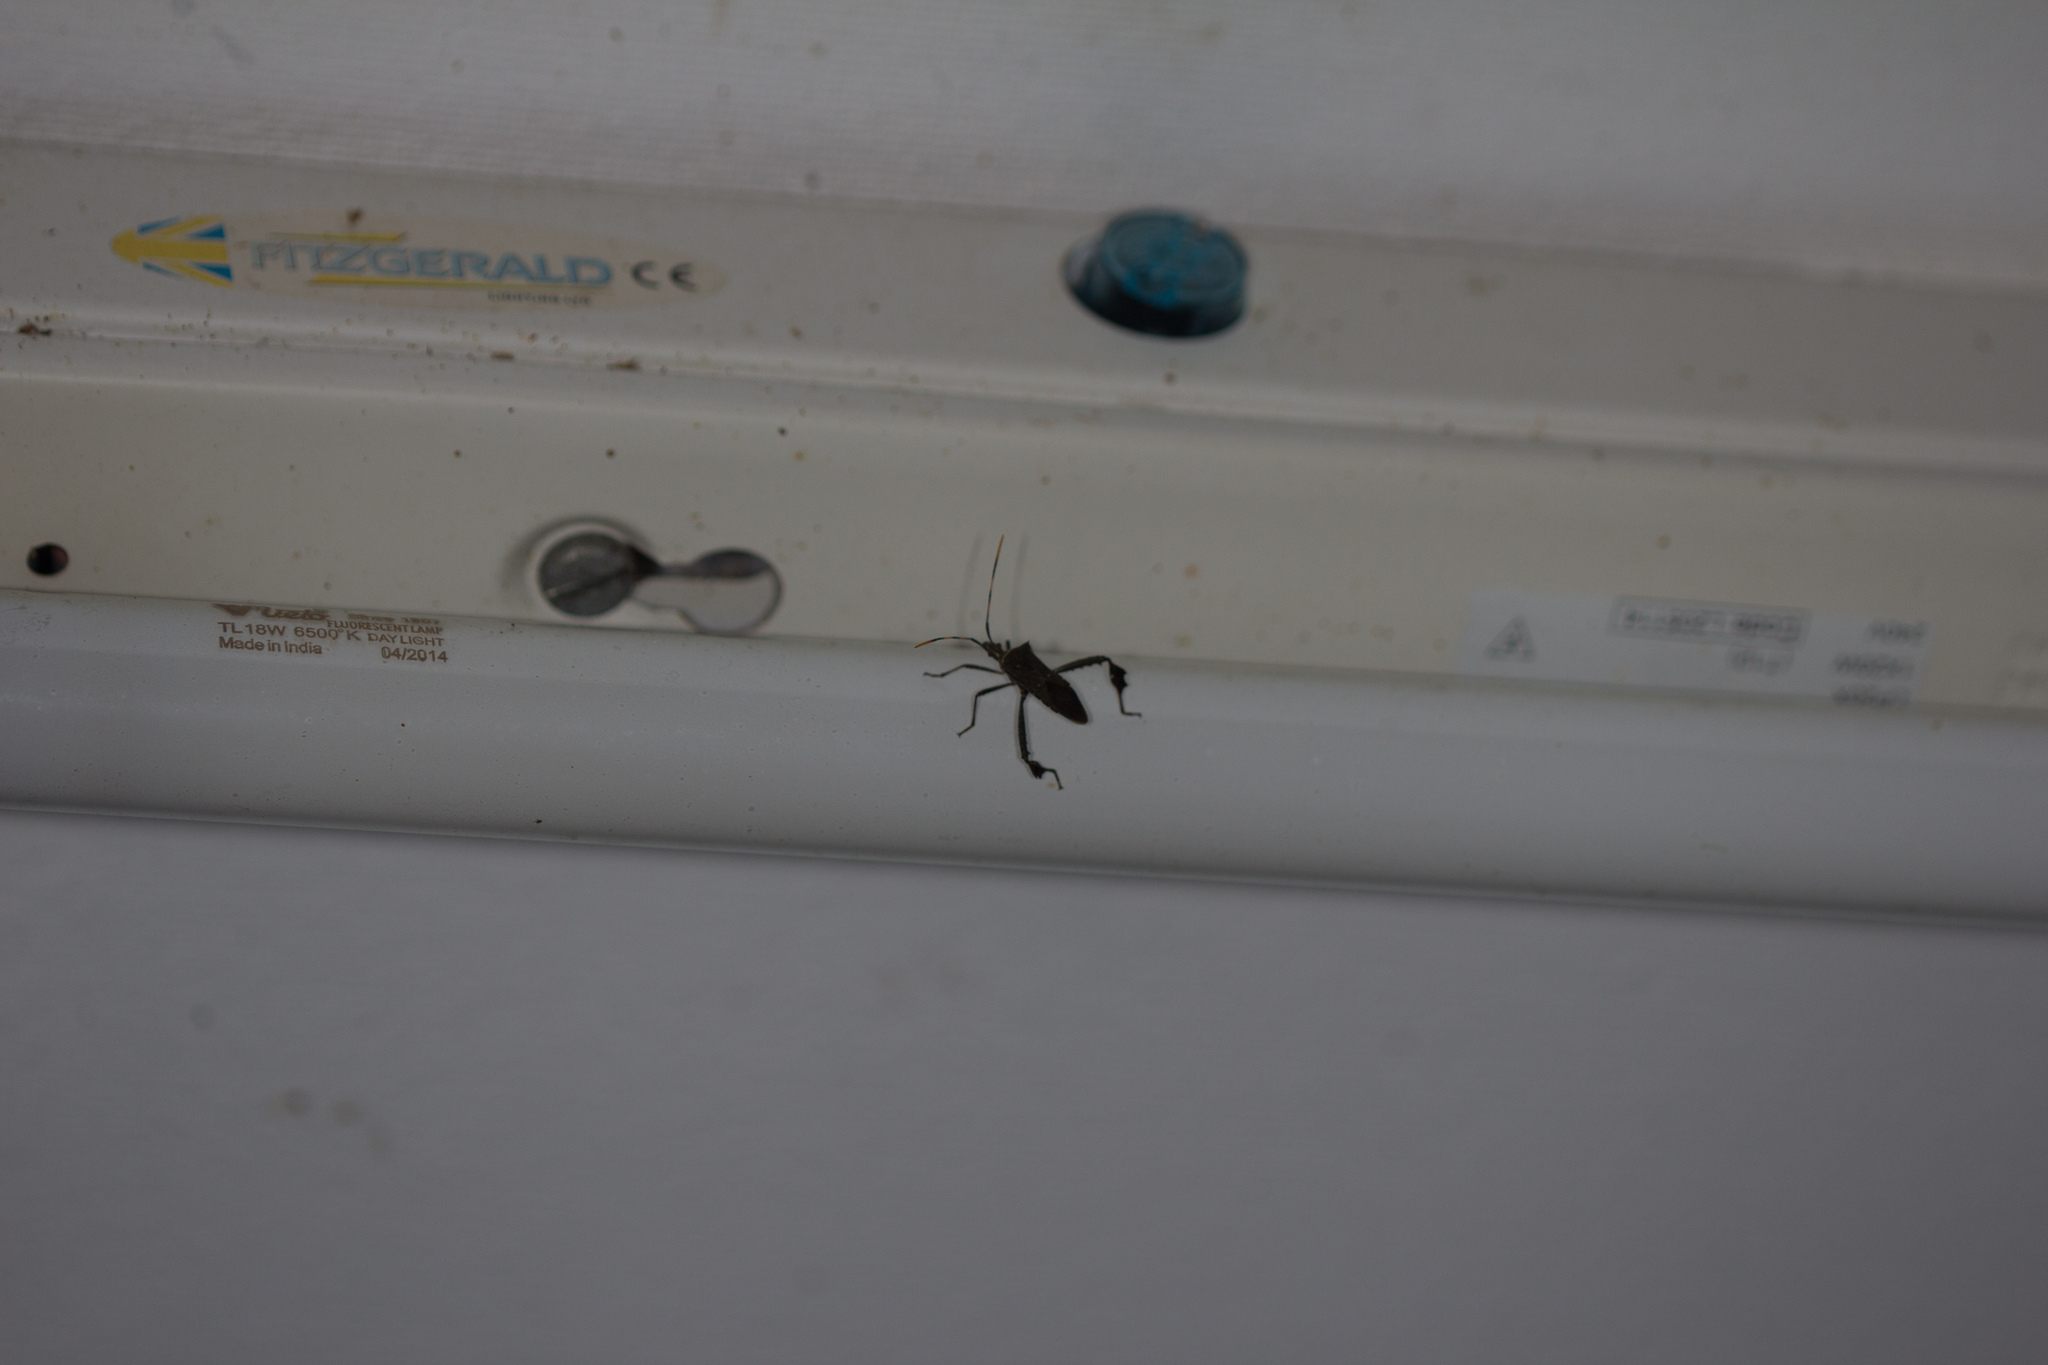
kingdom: Animalia
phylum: Arthropoda
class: Insecta
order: Hemiptera
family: Coreidae
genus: Leptoglossus
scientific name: Leptoglossus gonagra
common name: Citron bug
